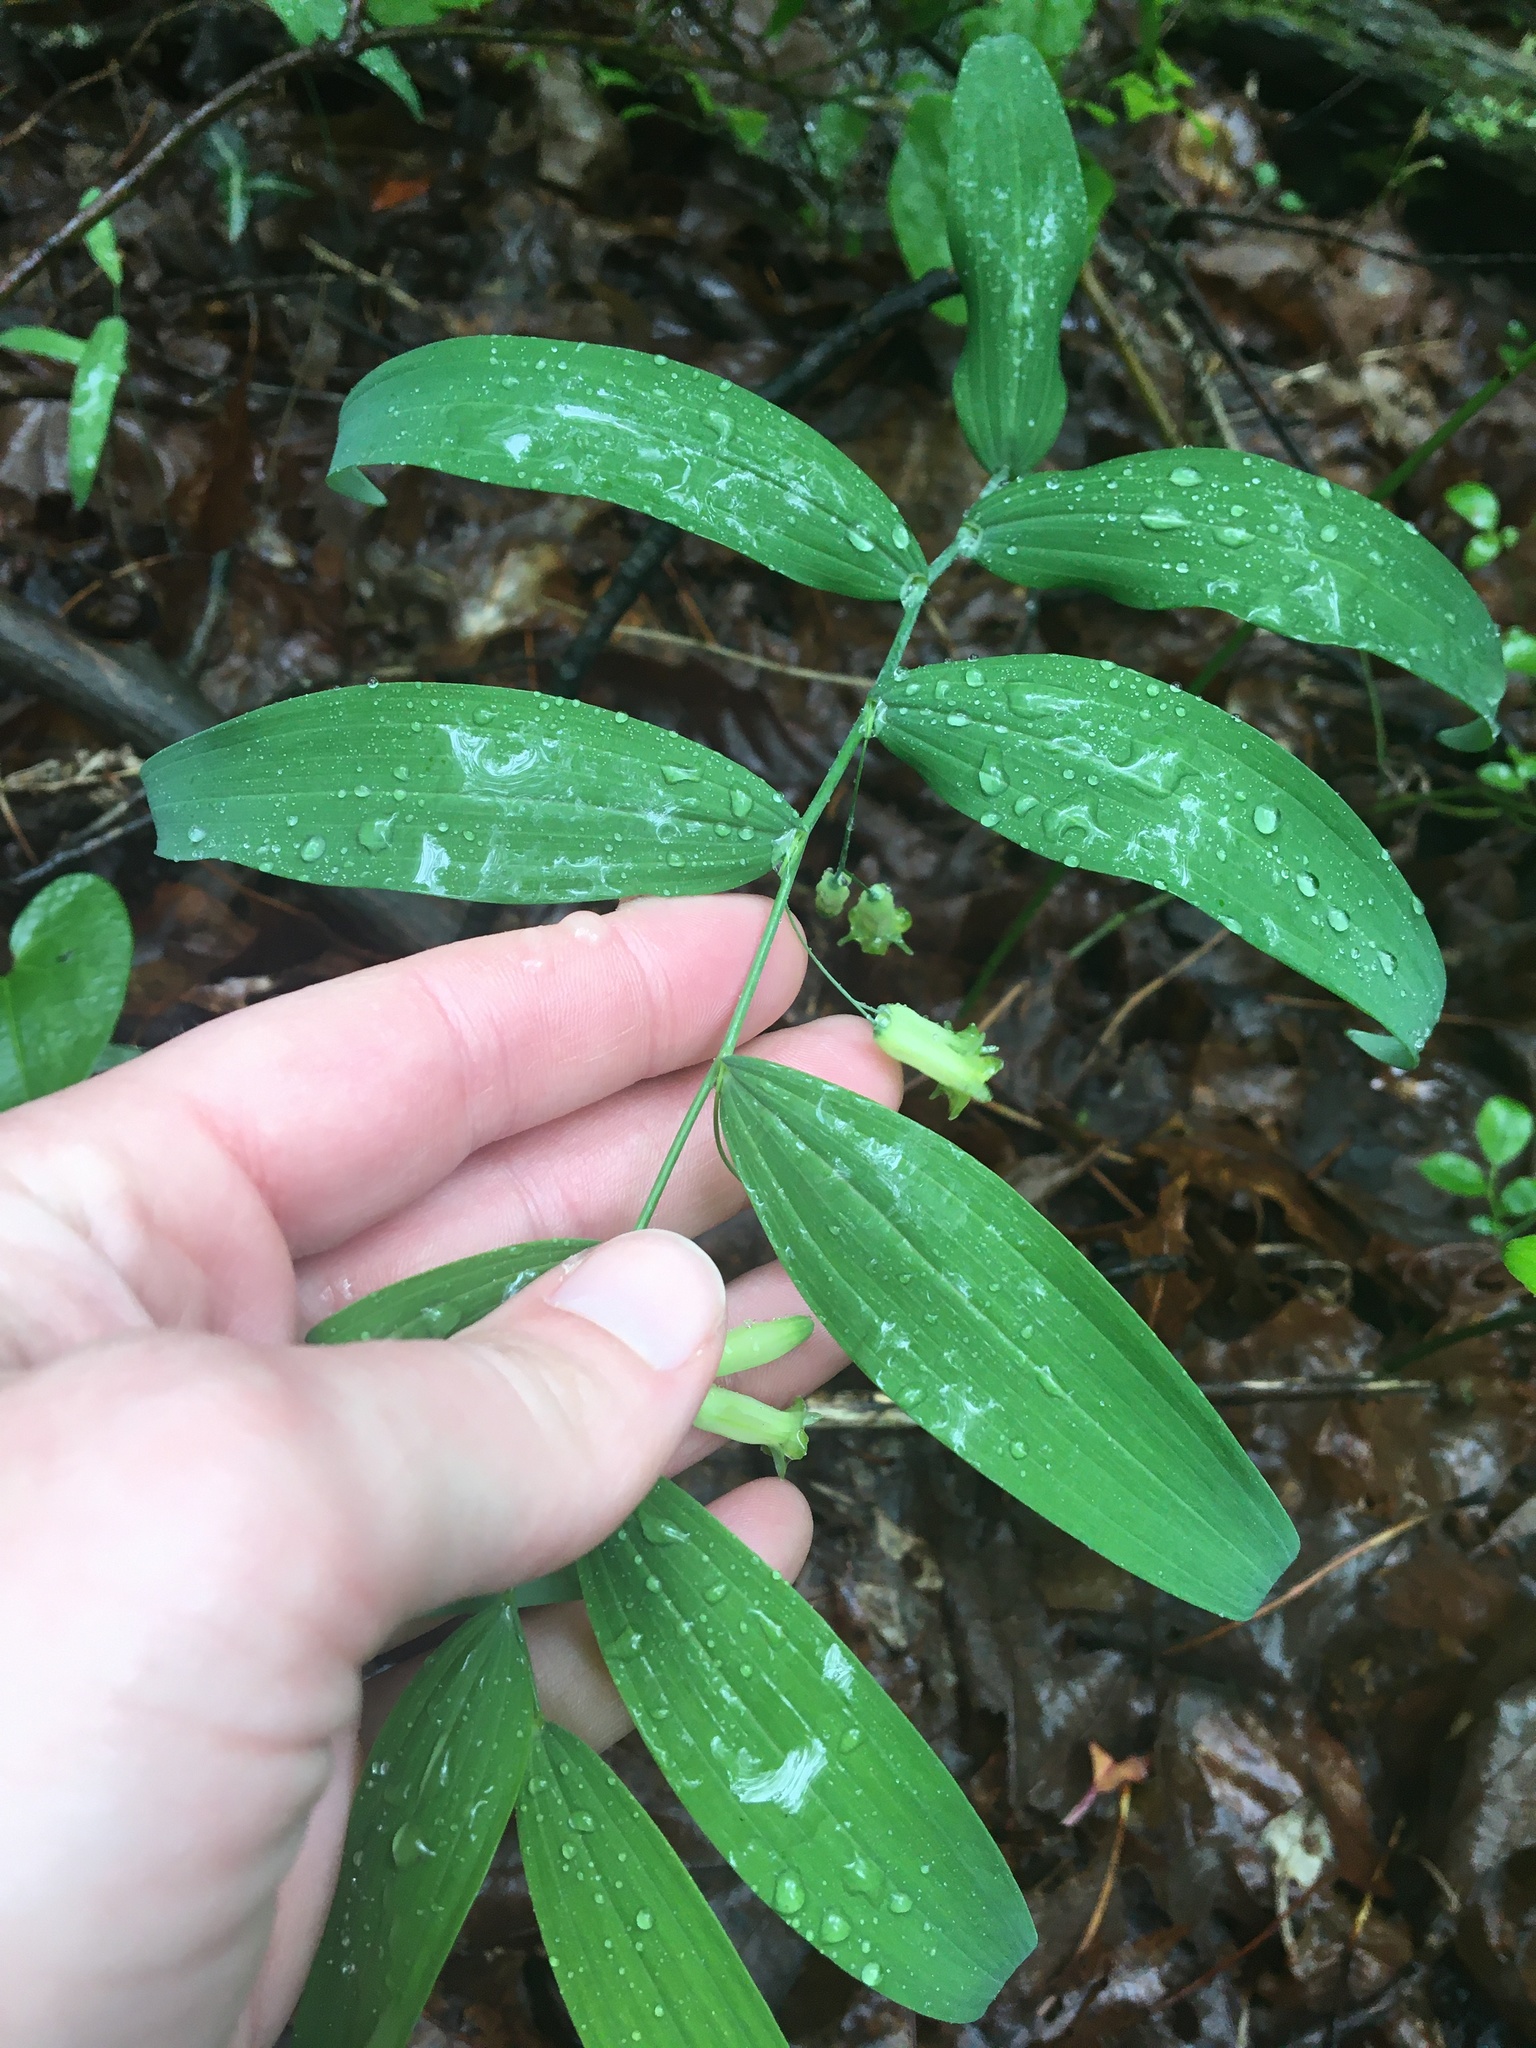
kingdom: Plantae
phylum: Tracheophyta
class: Liliopsida
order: Asparagales
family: Asparagaceae
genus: Polygonatum
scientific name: Polygonatum biflorum
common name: American solomon's-seal
